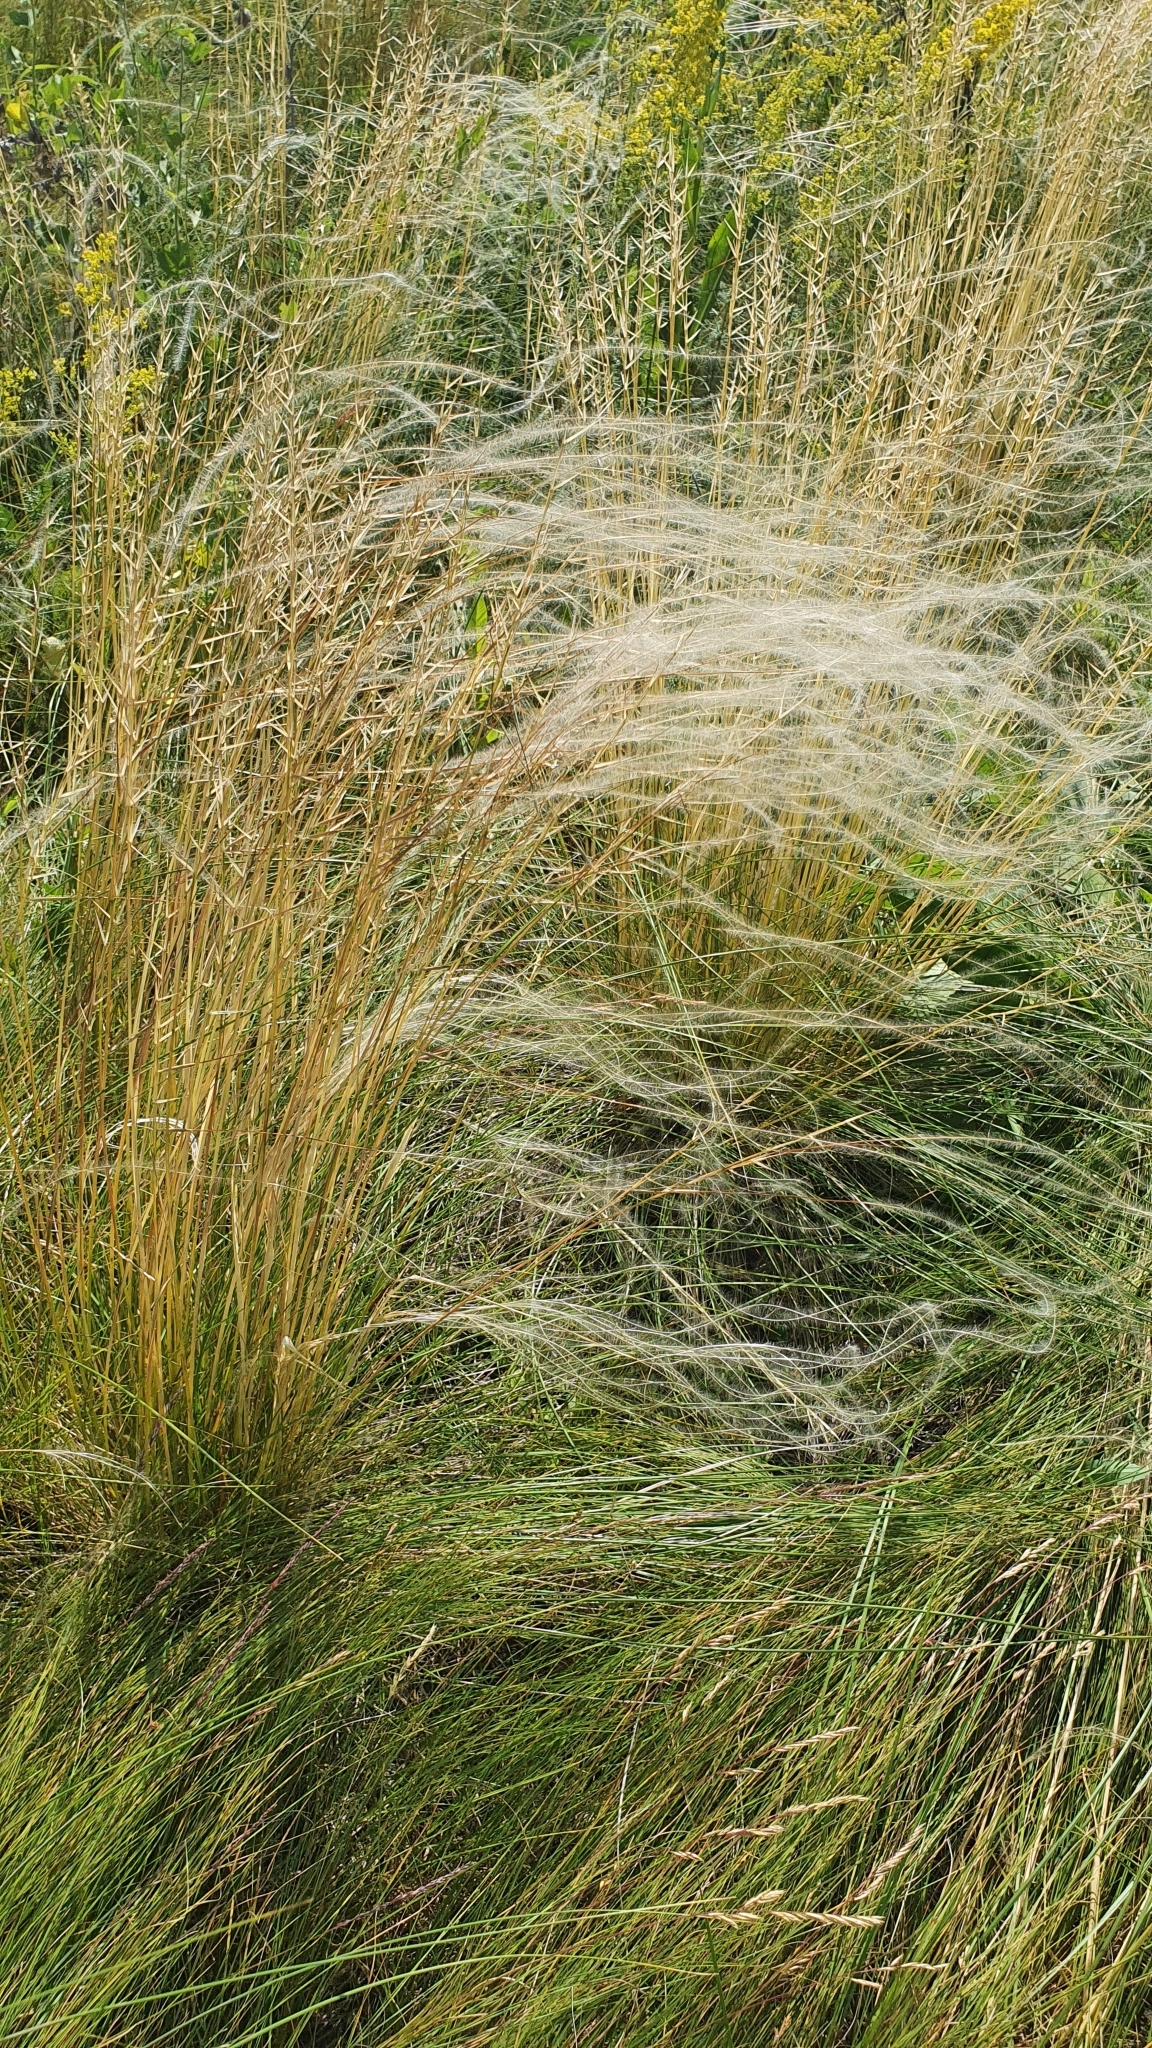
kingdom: Plantae
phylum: Tracheophyta
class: Liliopsida
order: Poales
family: Poaceae
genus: Stipa
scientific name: Stipa pennata
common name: European feather grass
